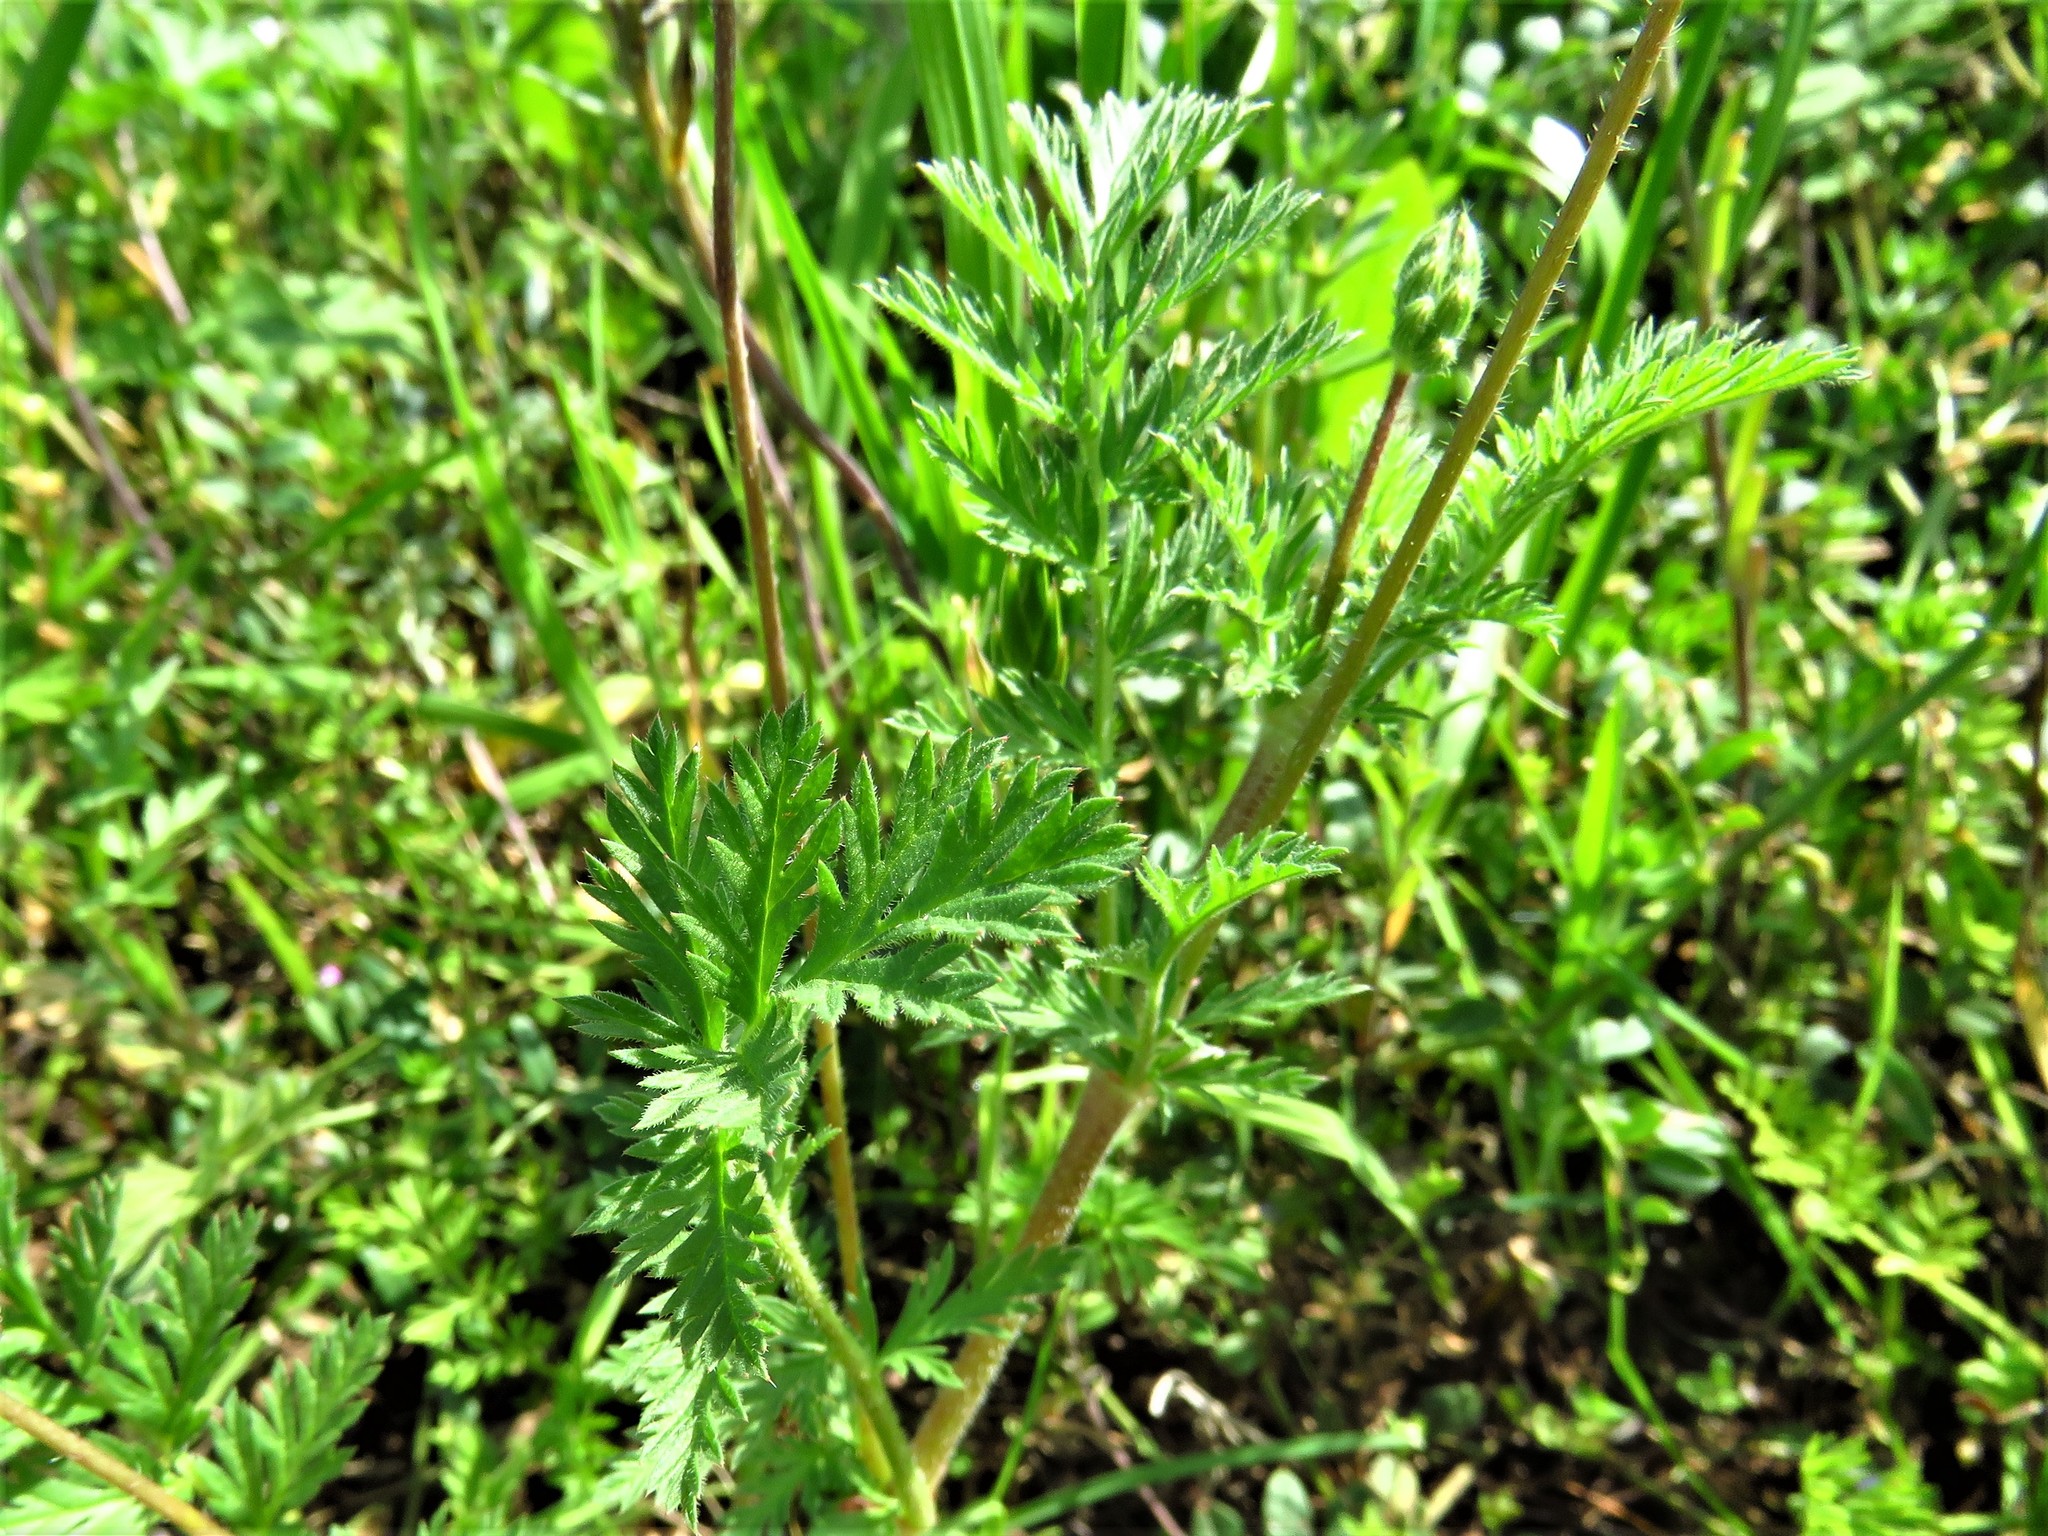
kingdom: Plantae
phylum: Tracheophyta
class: Magnoliopsida
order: Geraniales
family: Geraniaceae
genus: Erodium
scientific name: Erodium cicutarium
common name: Common stork's-bill
